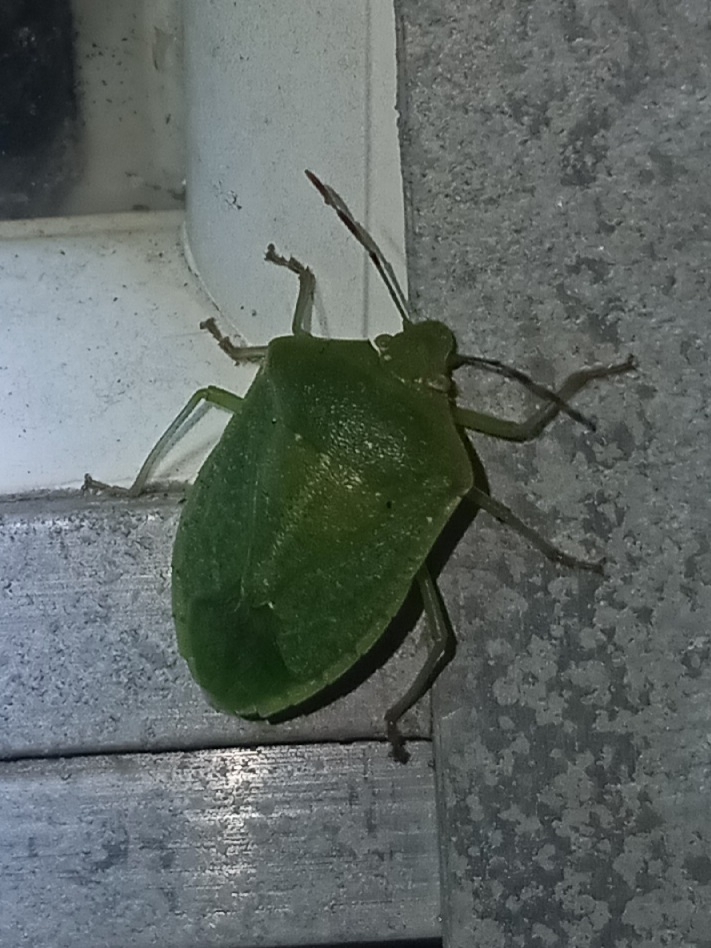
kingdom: Animalia
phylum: Arthropoda
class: Insecta
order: Hemiptera
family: Pentatomidae
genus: Nezara
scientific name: Nezara viridula
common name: Southern green stink bug
